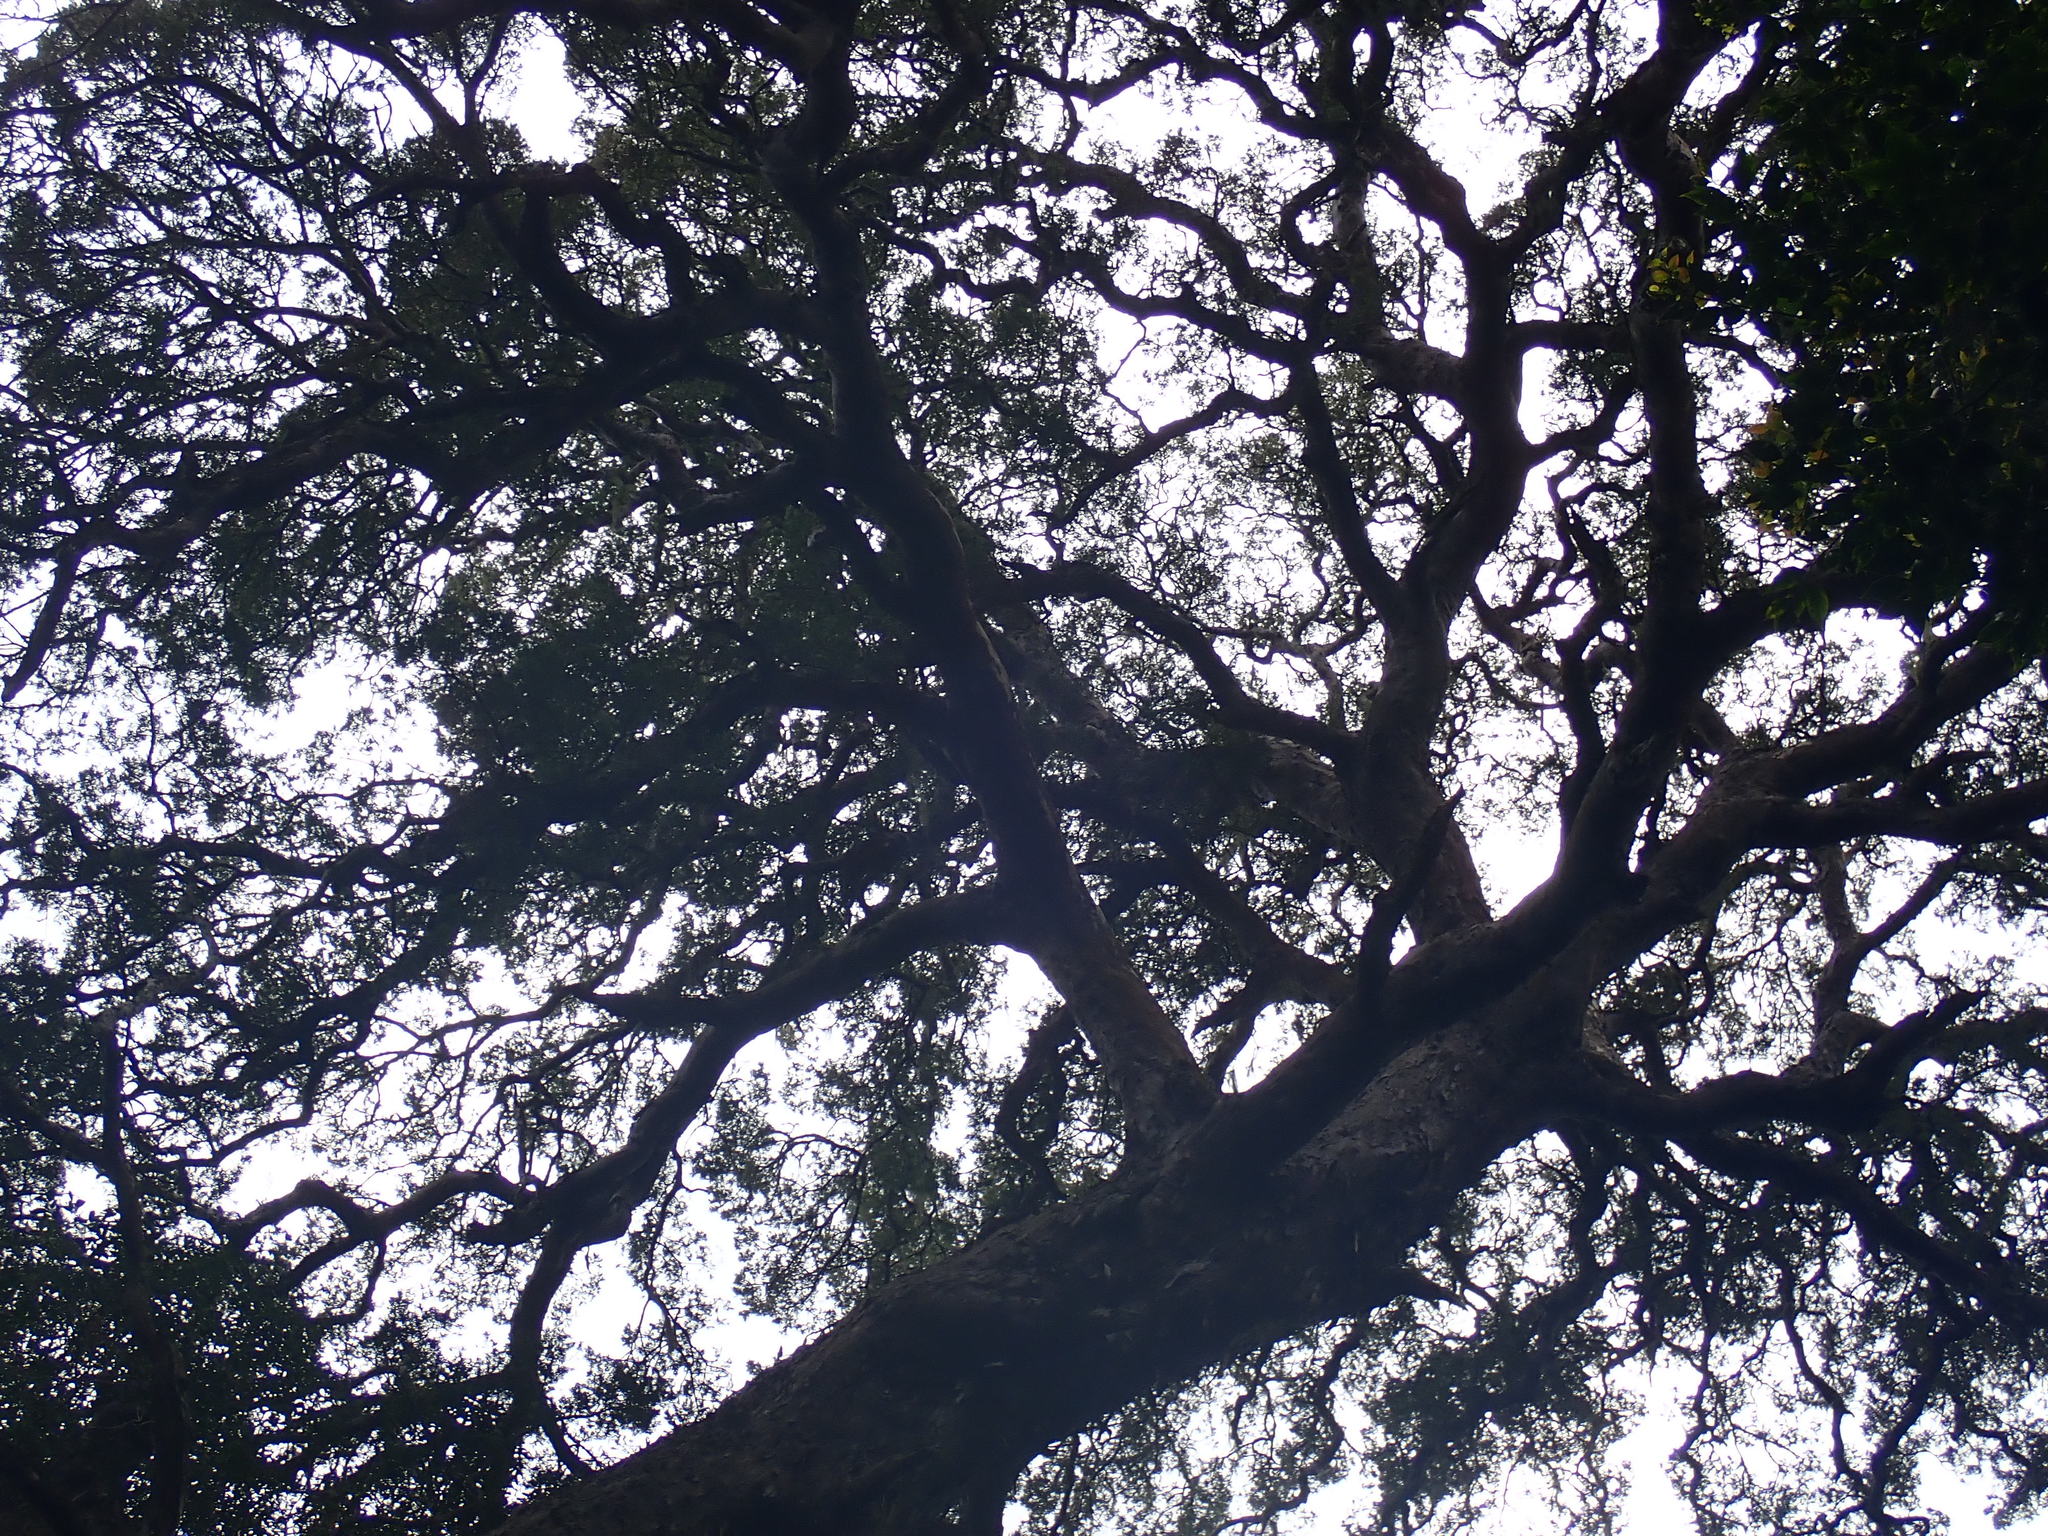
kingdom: Plantae
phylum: Tracheophyta
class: Pinopsida
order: Pinales
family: Podocarpaceae
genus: Afrocarpus
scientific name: Afrocarpus falcatus
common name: Bastard yellowwood
